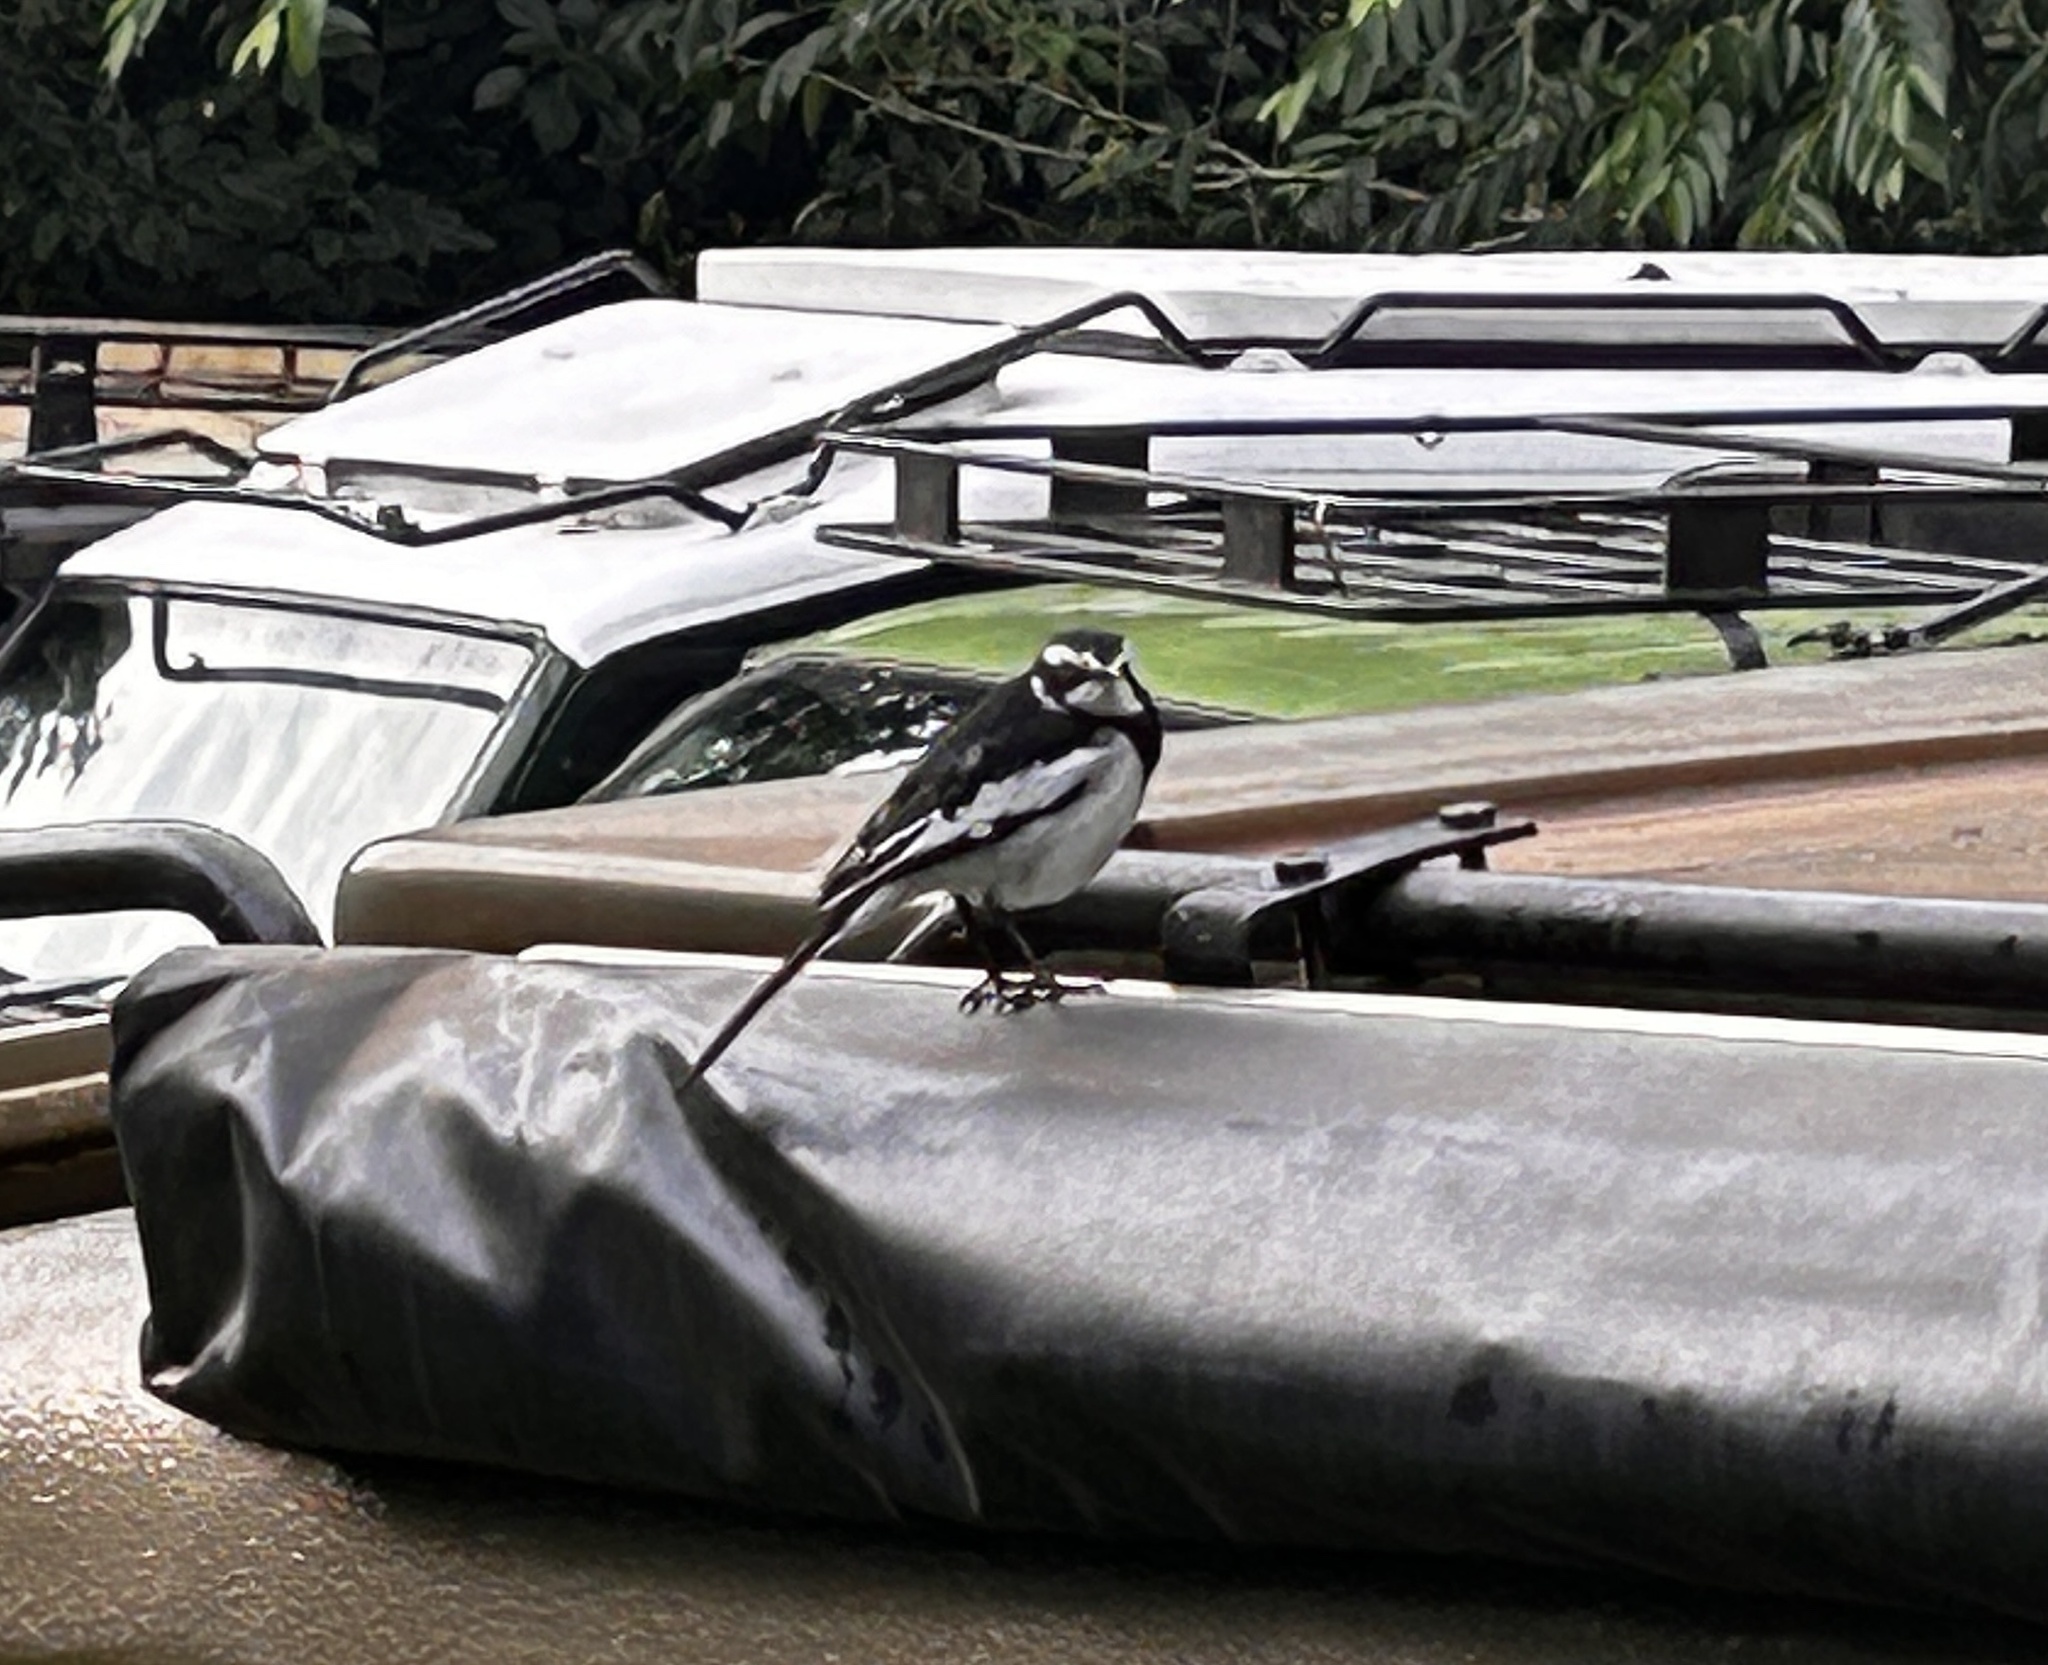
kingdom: Animalia
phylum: Chordata
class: Aves
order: Passeriformes
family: Motacillidae
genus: Motacilla
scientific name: Motacilla aguimp
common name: African pied wagtail
